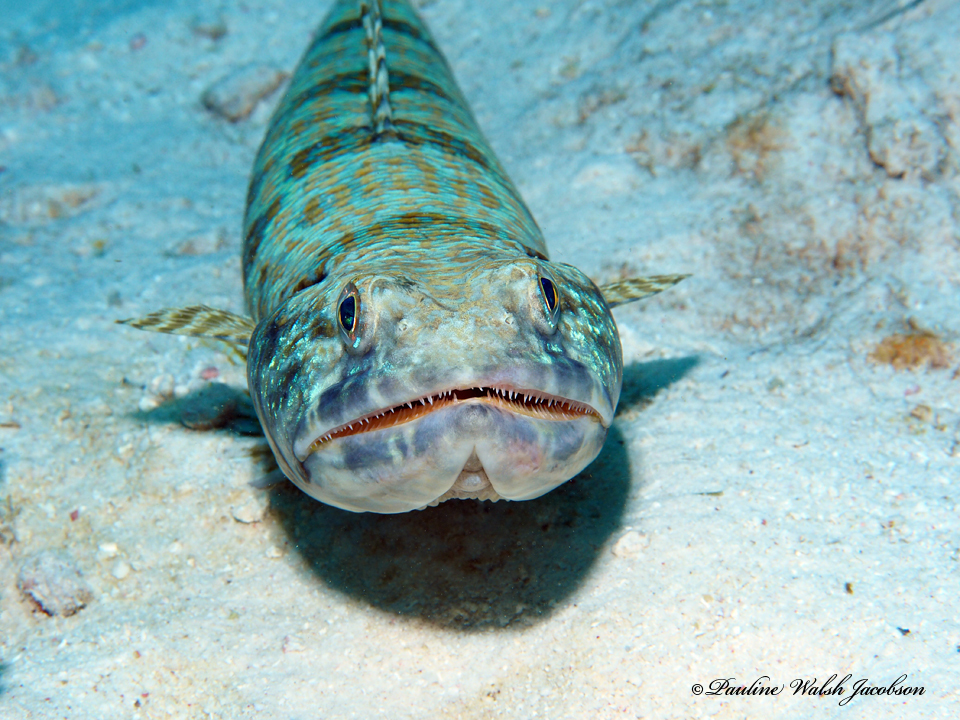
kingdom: Animalia
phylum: Chordata
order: Aulopiformes
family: Synodontidae
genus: Synodus
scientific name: Synodus intermedius
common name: Sand diver
